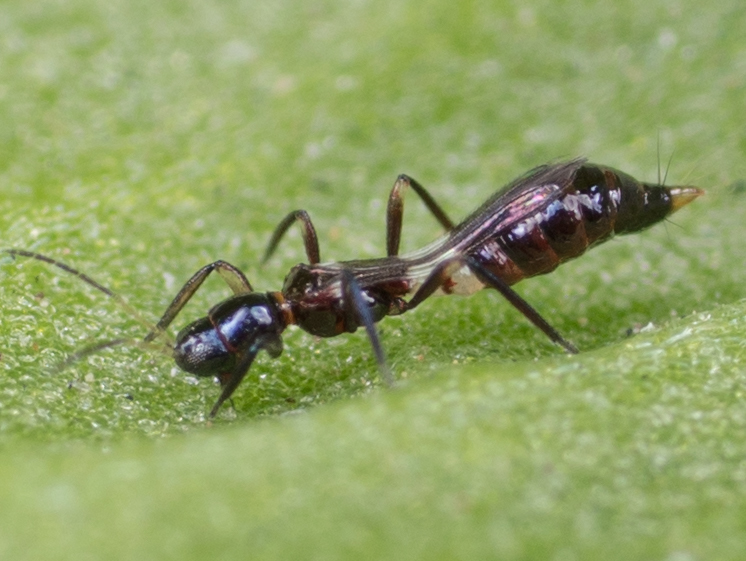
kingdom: Animalia
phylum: Arthropoda
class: Insecta
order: Thysanoptera
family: Aeolothripidae
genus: Franklinothrips
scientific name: Franklinothrips vespiformis
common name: Banded thrip
